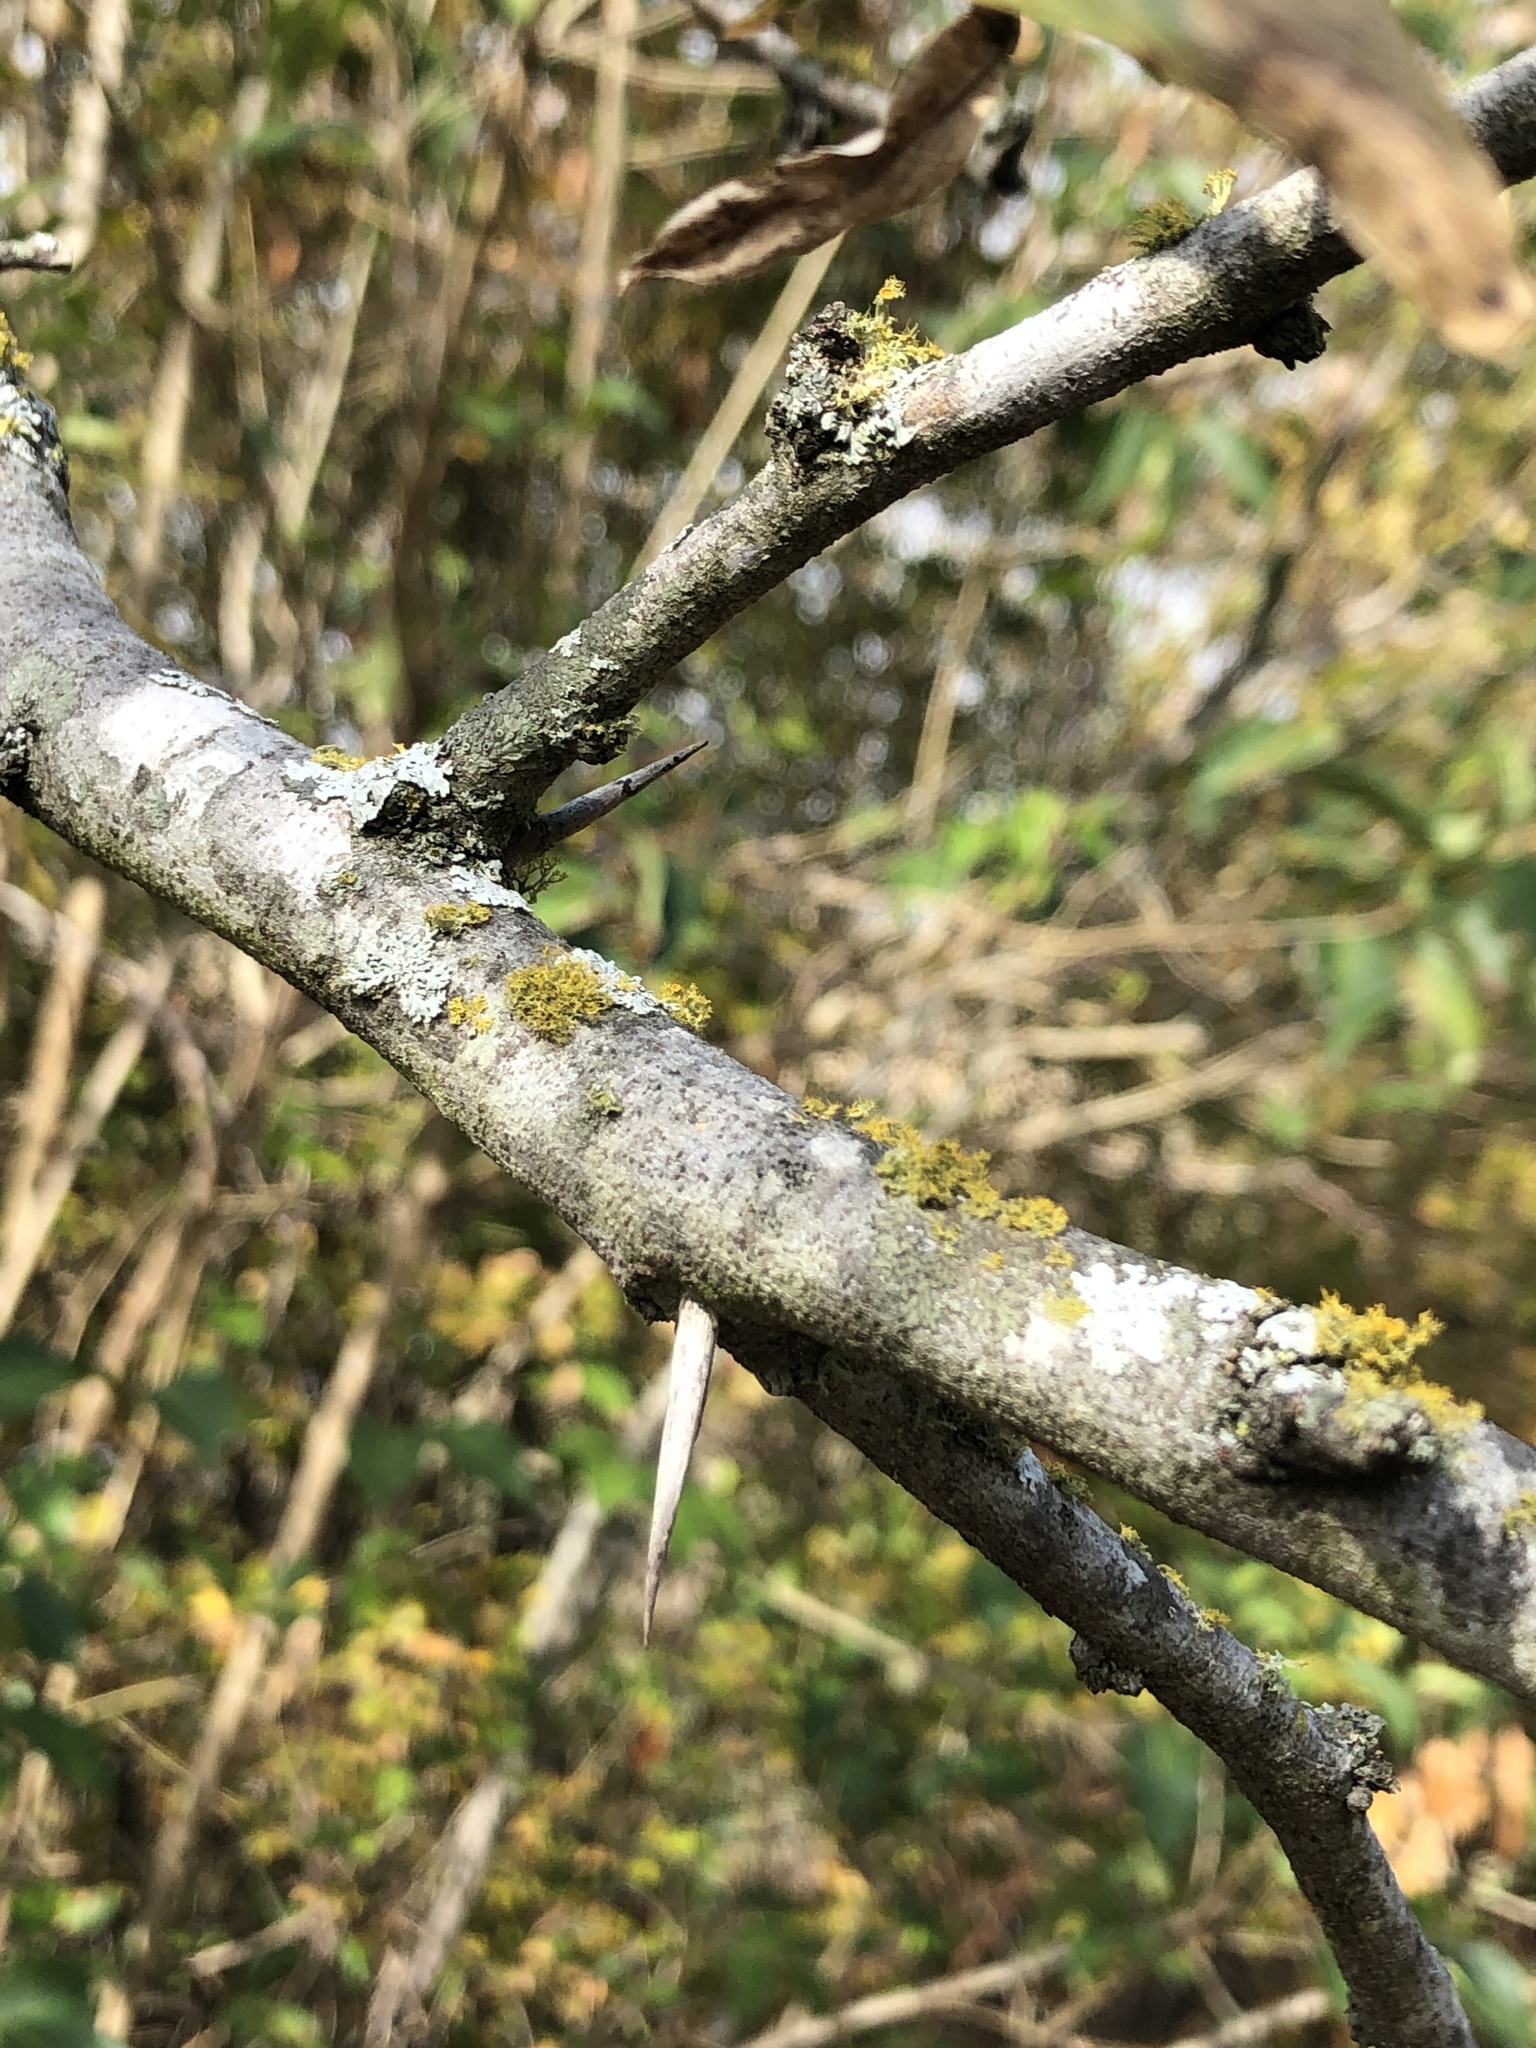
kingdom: Fungi
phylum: Ascomycota
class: Lecanoromycetes
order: Teloschistales
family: Teloschistaceae
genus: Niorma
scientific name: Niorma chrysophthalma
